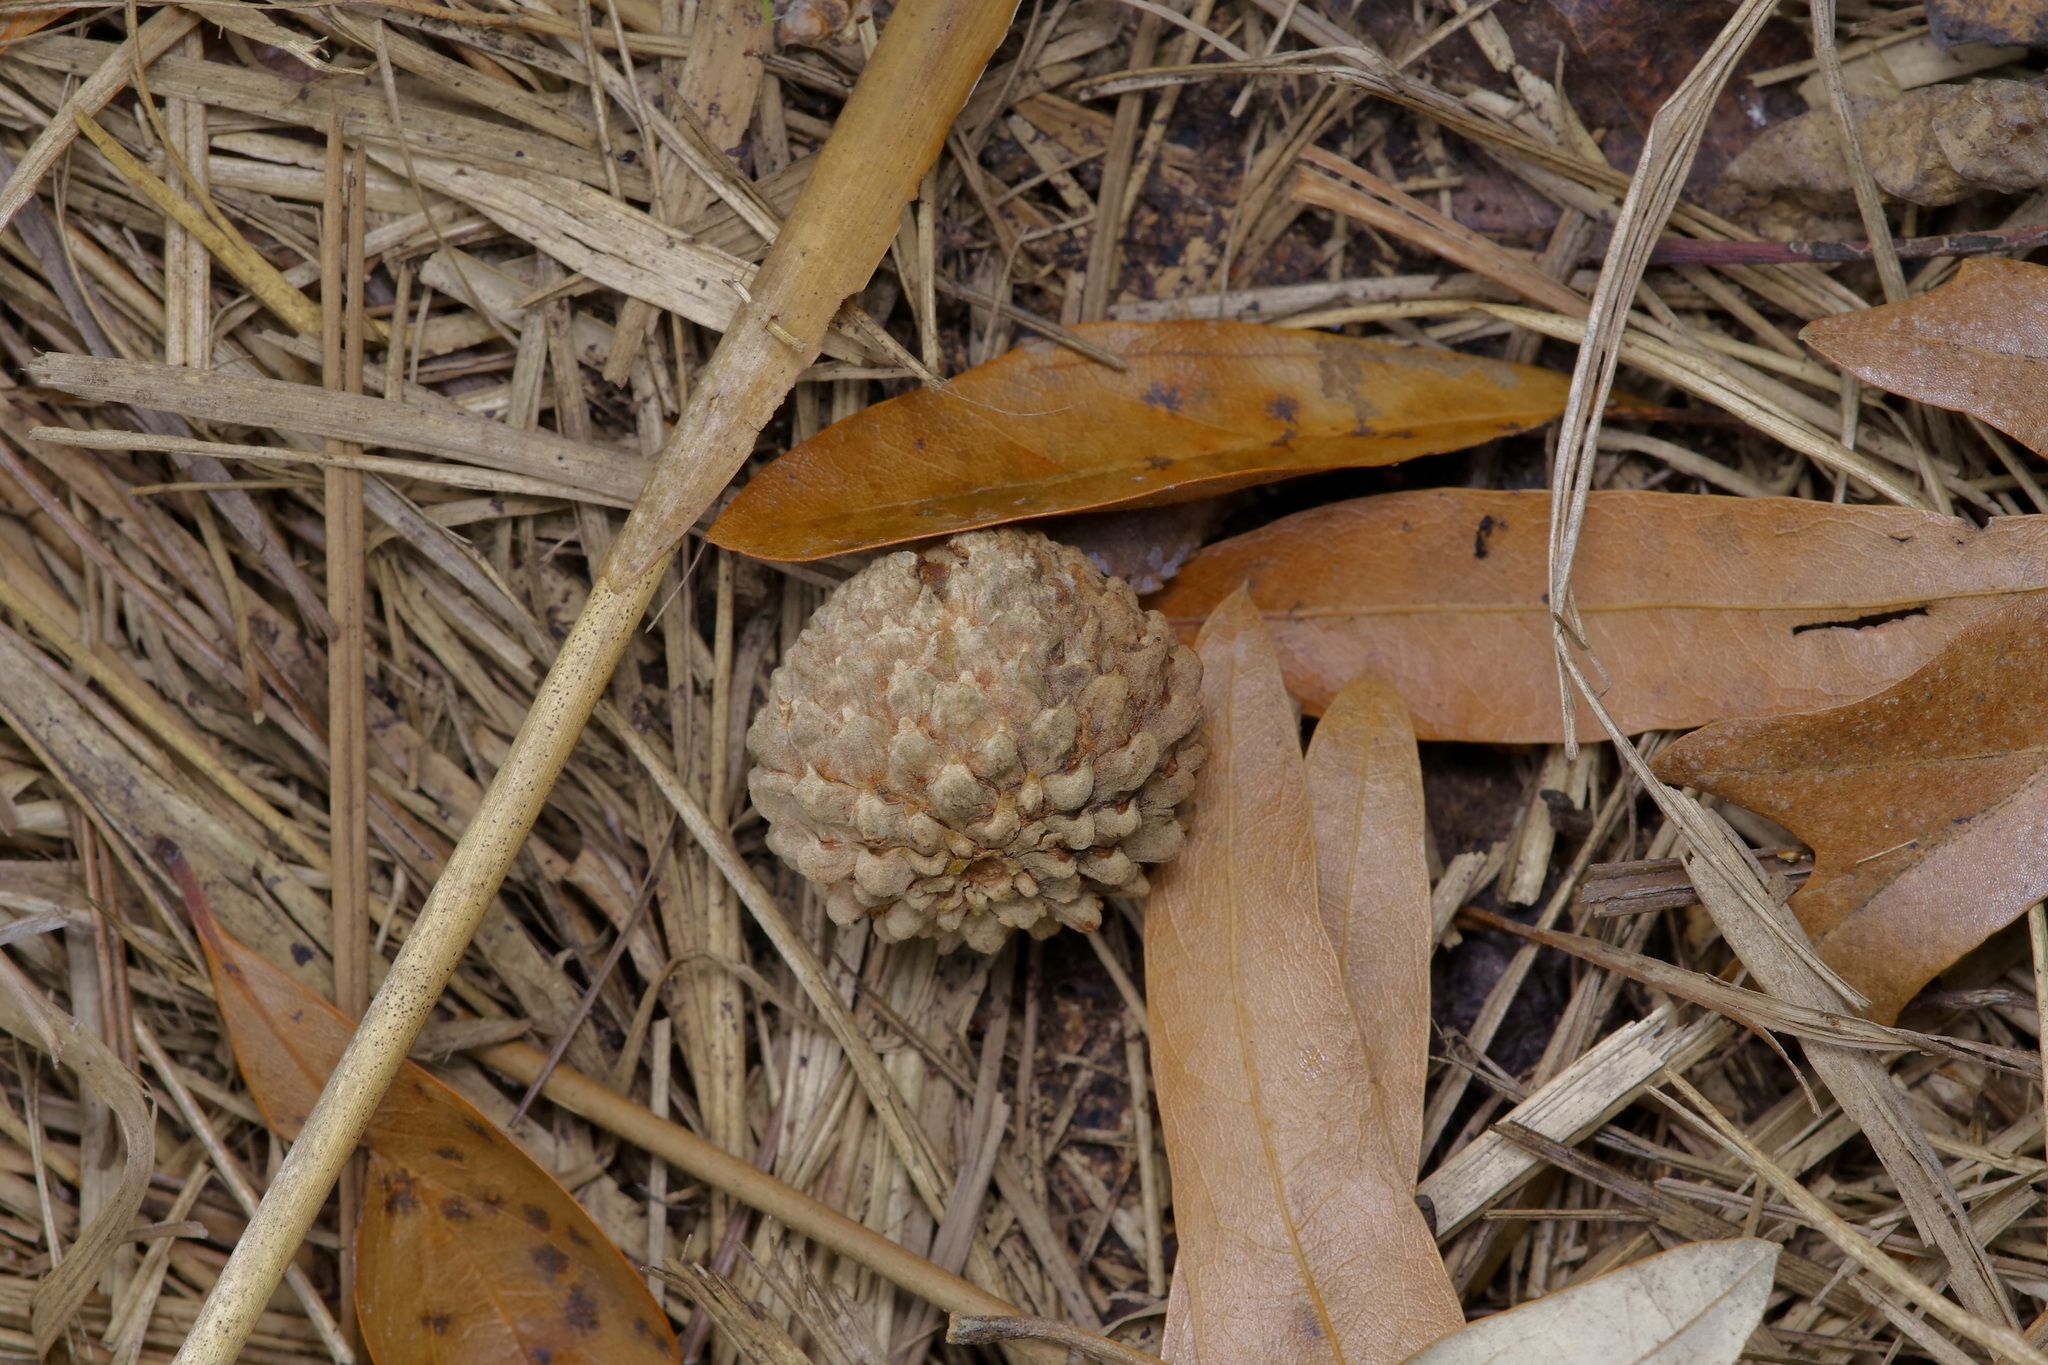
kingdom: Plantae
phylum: Tracheophyta
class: Magnoliopsida
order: Fagales
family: Fagaceae
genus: Quercus
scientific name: Quercus lyrata
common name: Overcup oak
